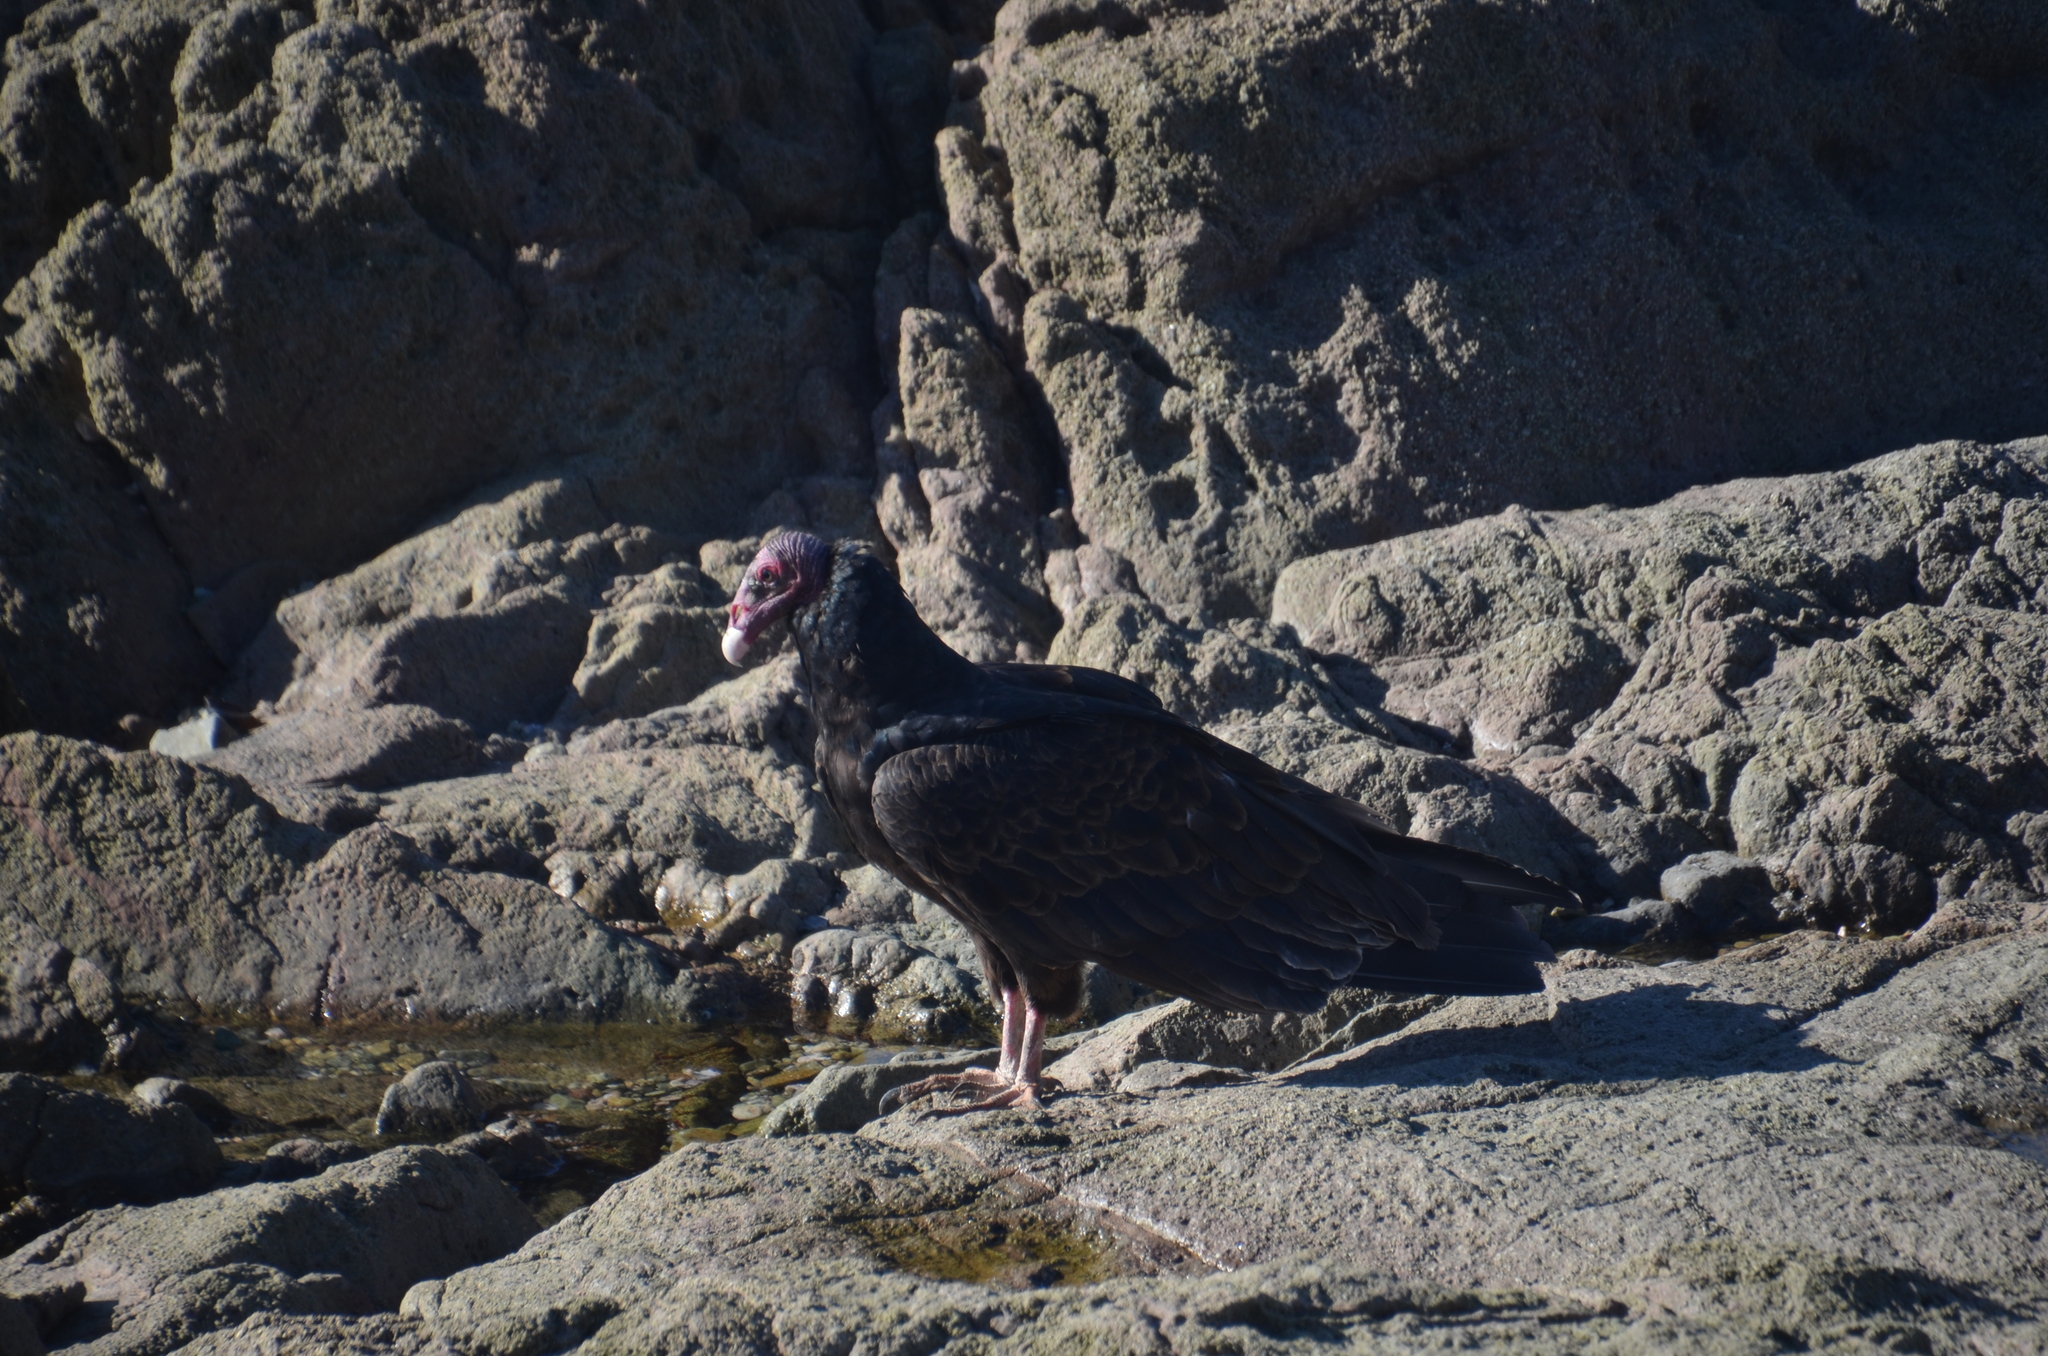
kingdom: Animalia
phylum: Chordata
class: Aves
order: Accipitriformes
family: Cathartidae
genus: Cathartes
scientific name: Cathartes aura
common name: Turkey vulture
